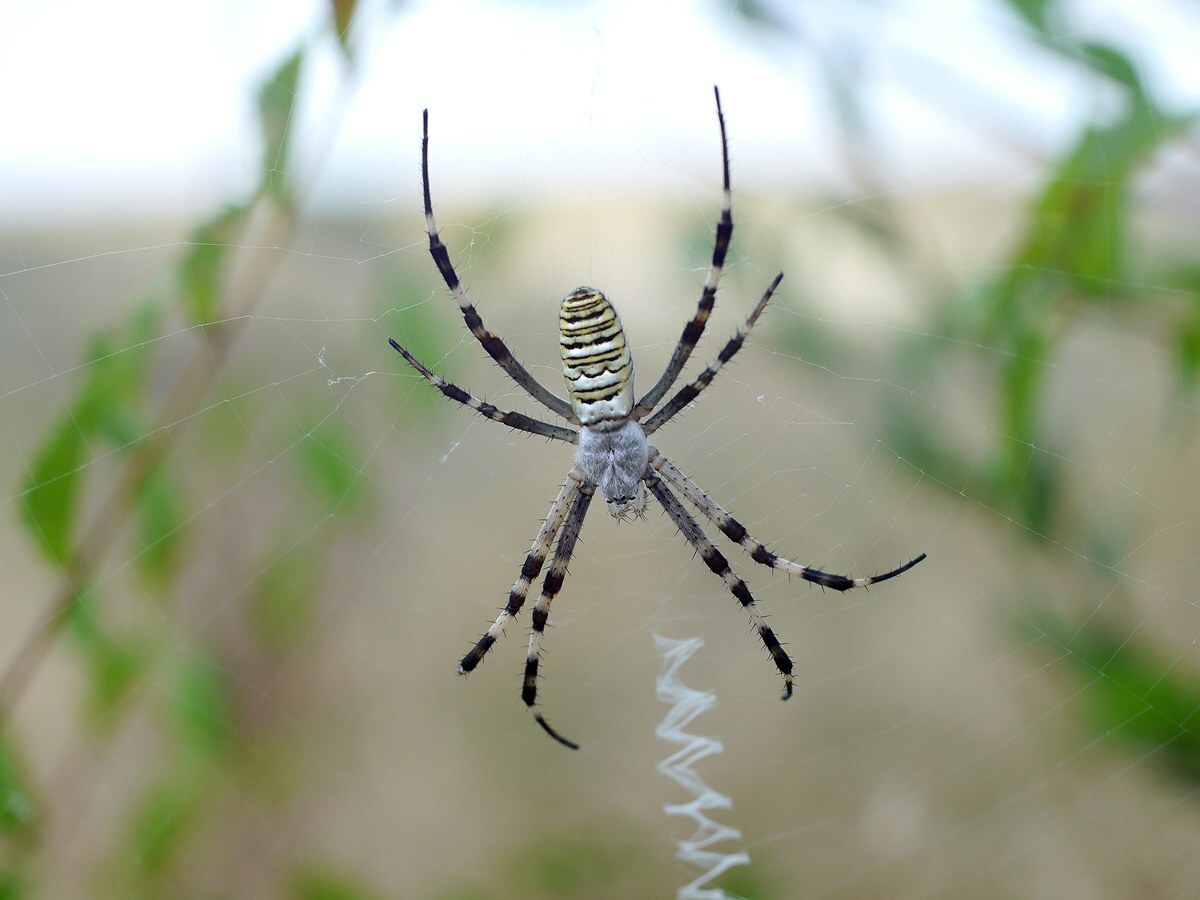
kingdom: Animalia
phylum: Arthropoda
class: Arachnida
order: Araneae
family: Araneidae
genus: Argiope
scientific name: Argiope bruennichi
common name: Wasp spider
